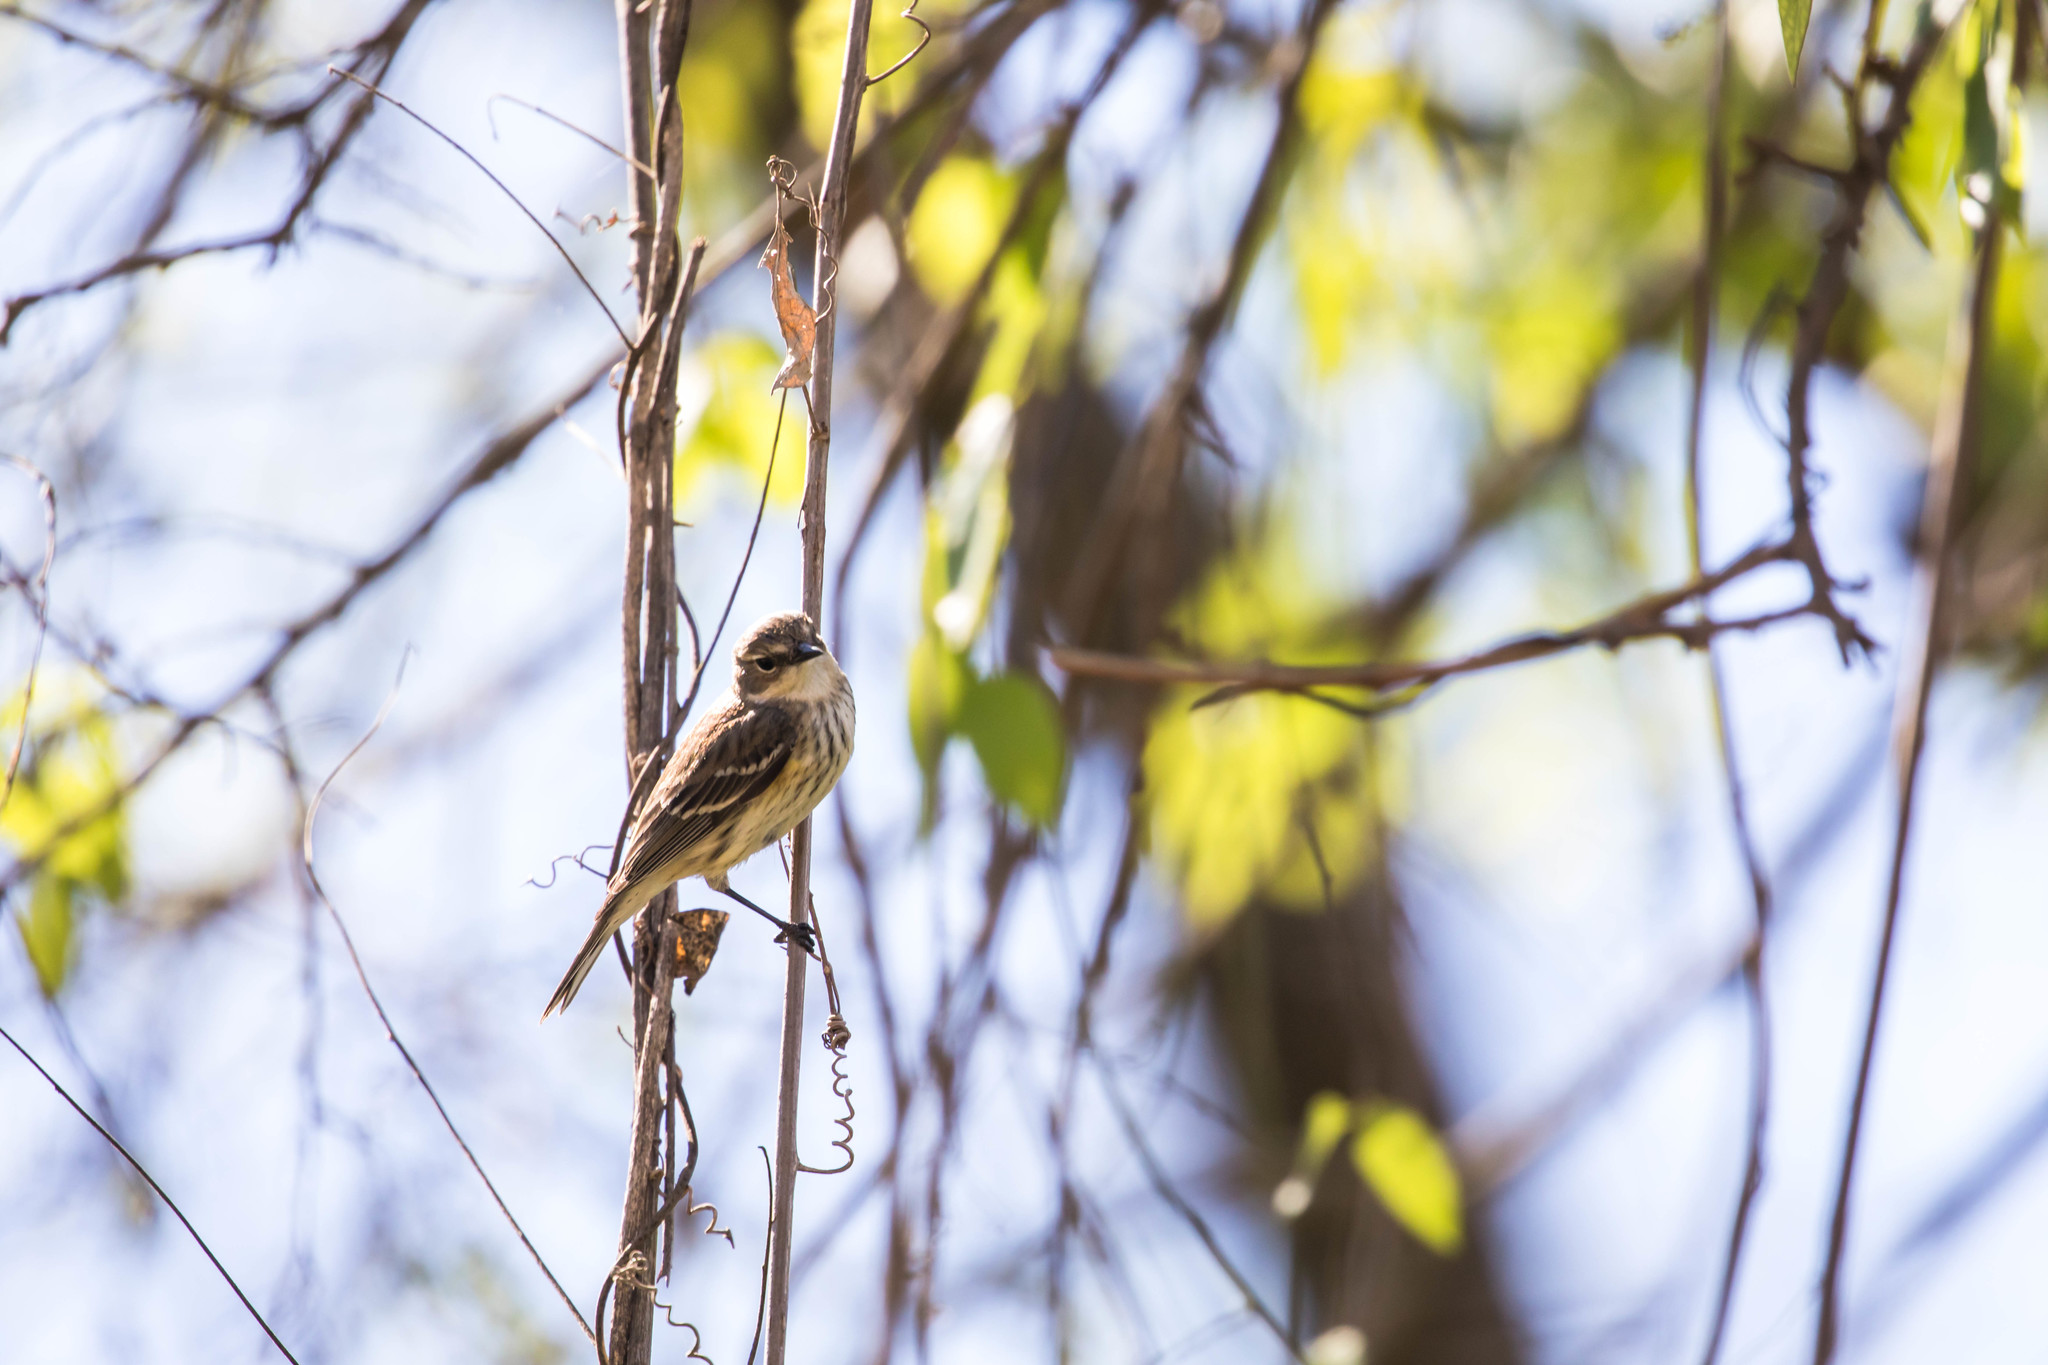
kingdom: Animalia
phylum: Chordata
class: Aves
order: Passeriformes
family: Parulidae
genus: Setophaga
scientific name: Setophaga coronata
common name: Myrtle warbler
